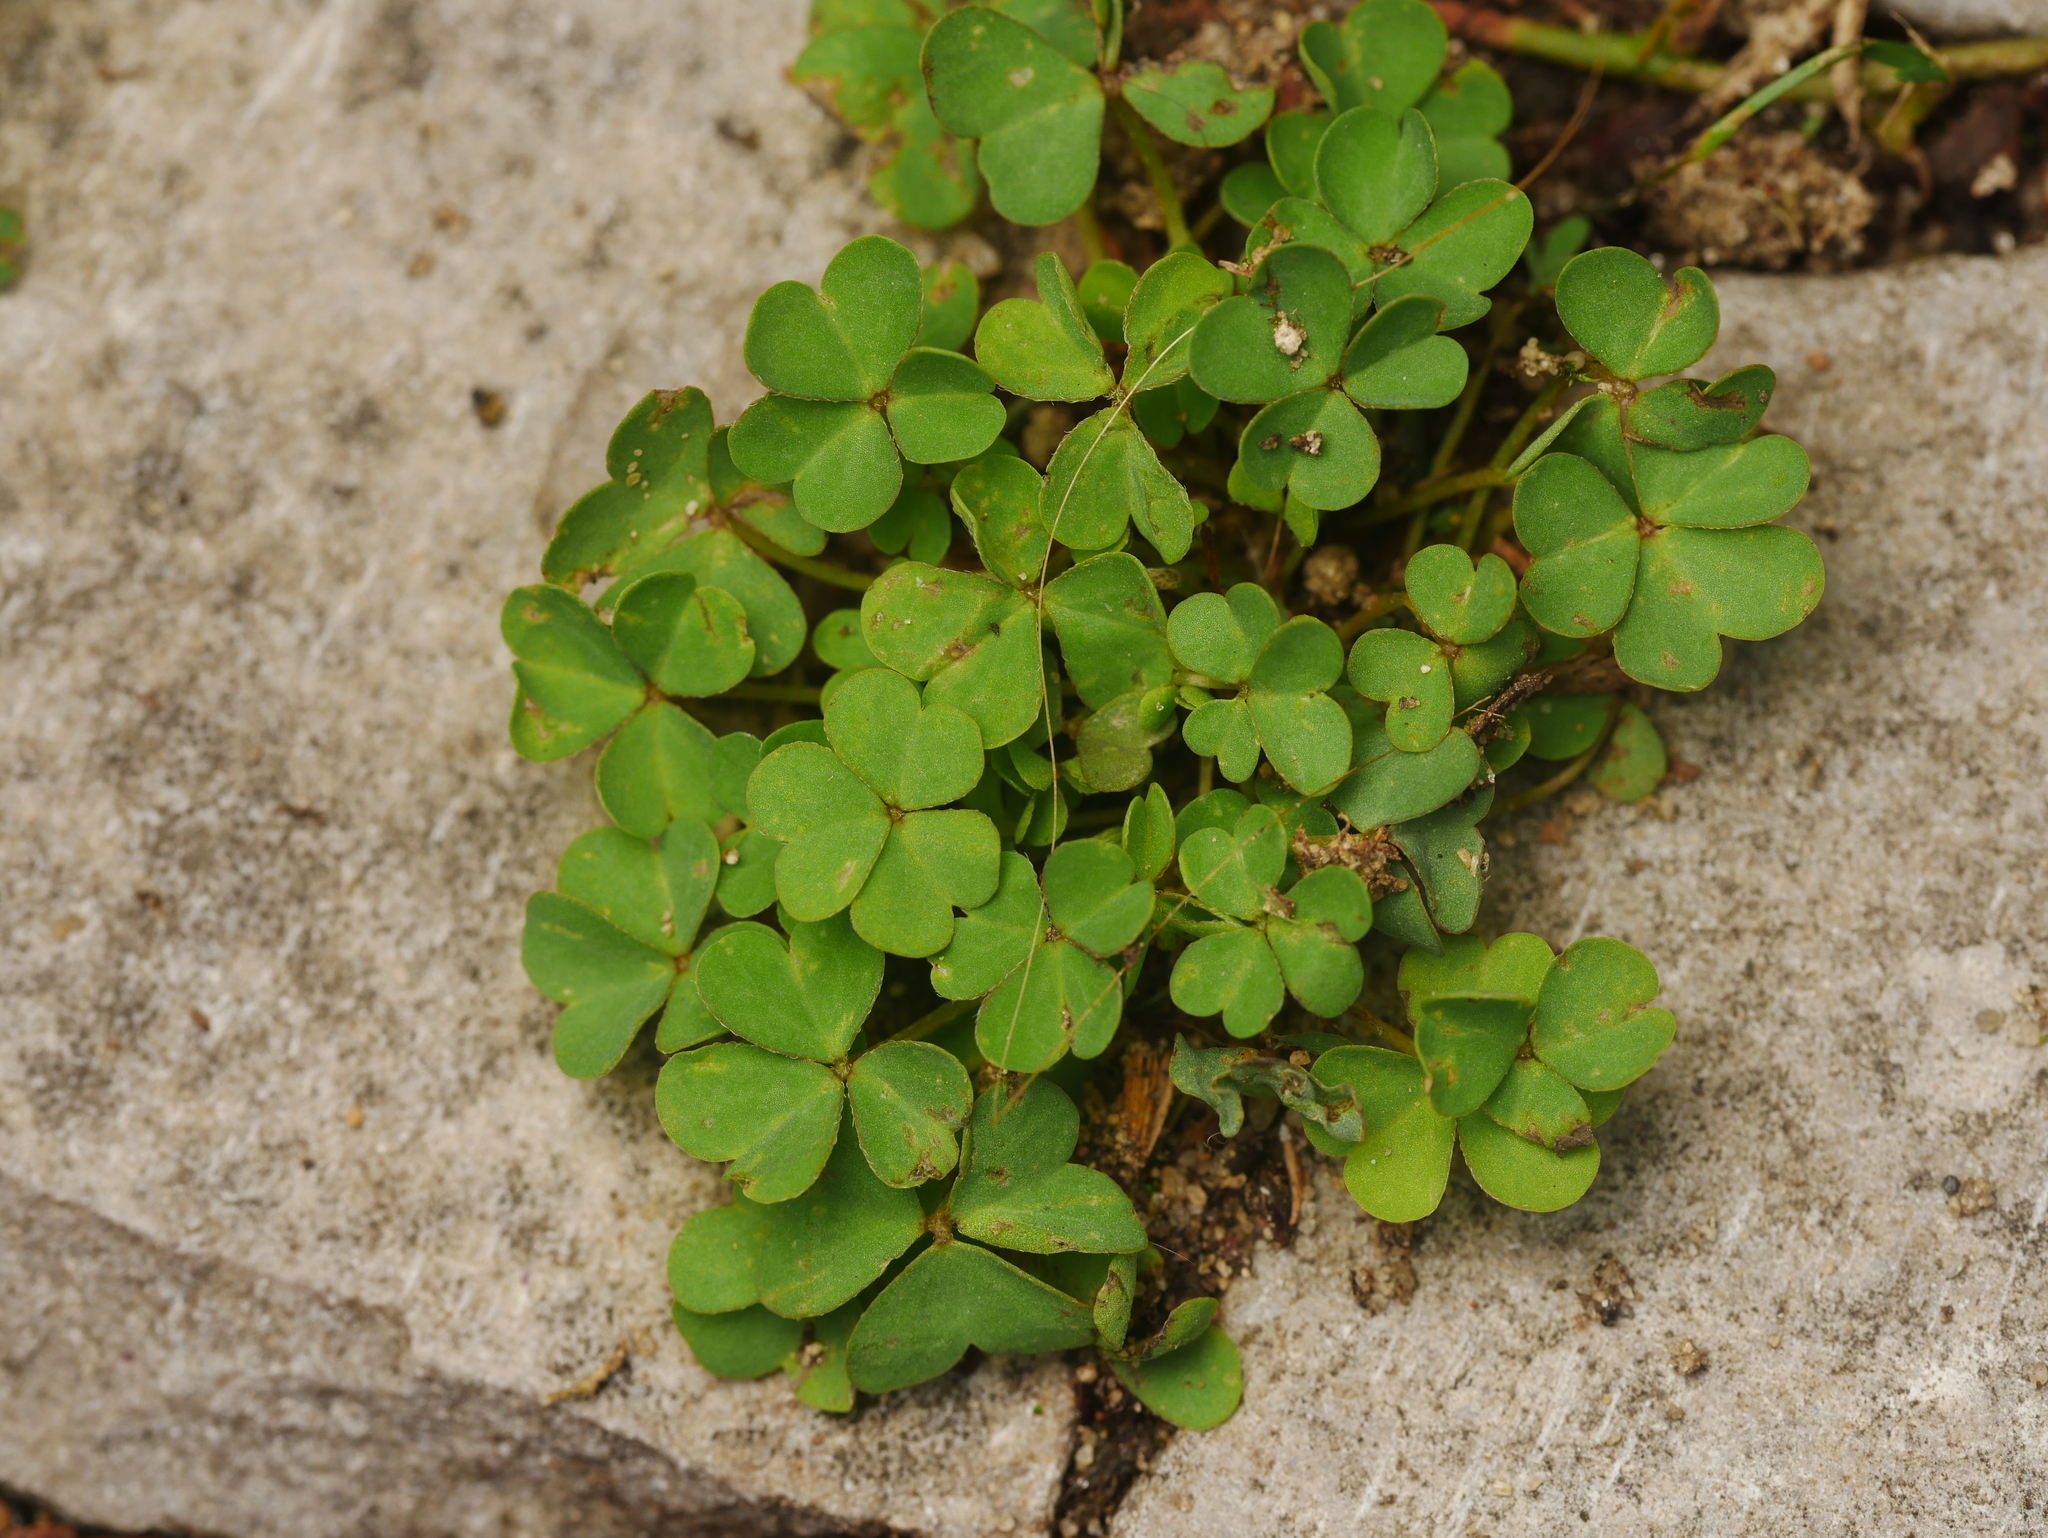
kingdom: Plantae
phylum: Tracheophyta
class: Magnoliopsida
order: Oxalidales
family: Oxalidaceae
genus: Oxalis
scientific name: Oxalis corniculata
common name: Procumbent yellow-sorrel
